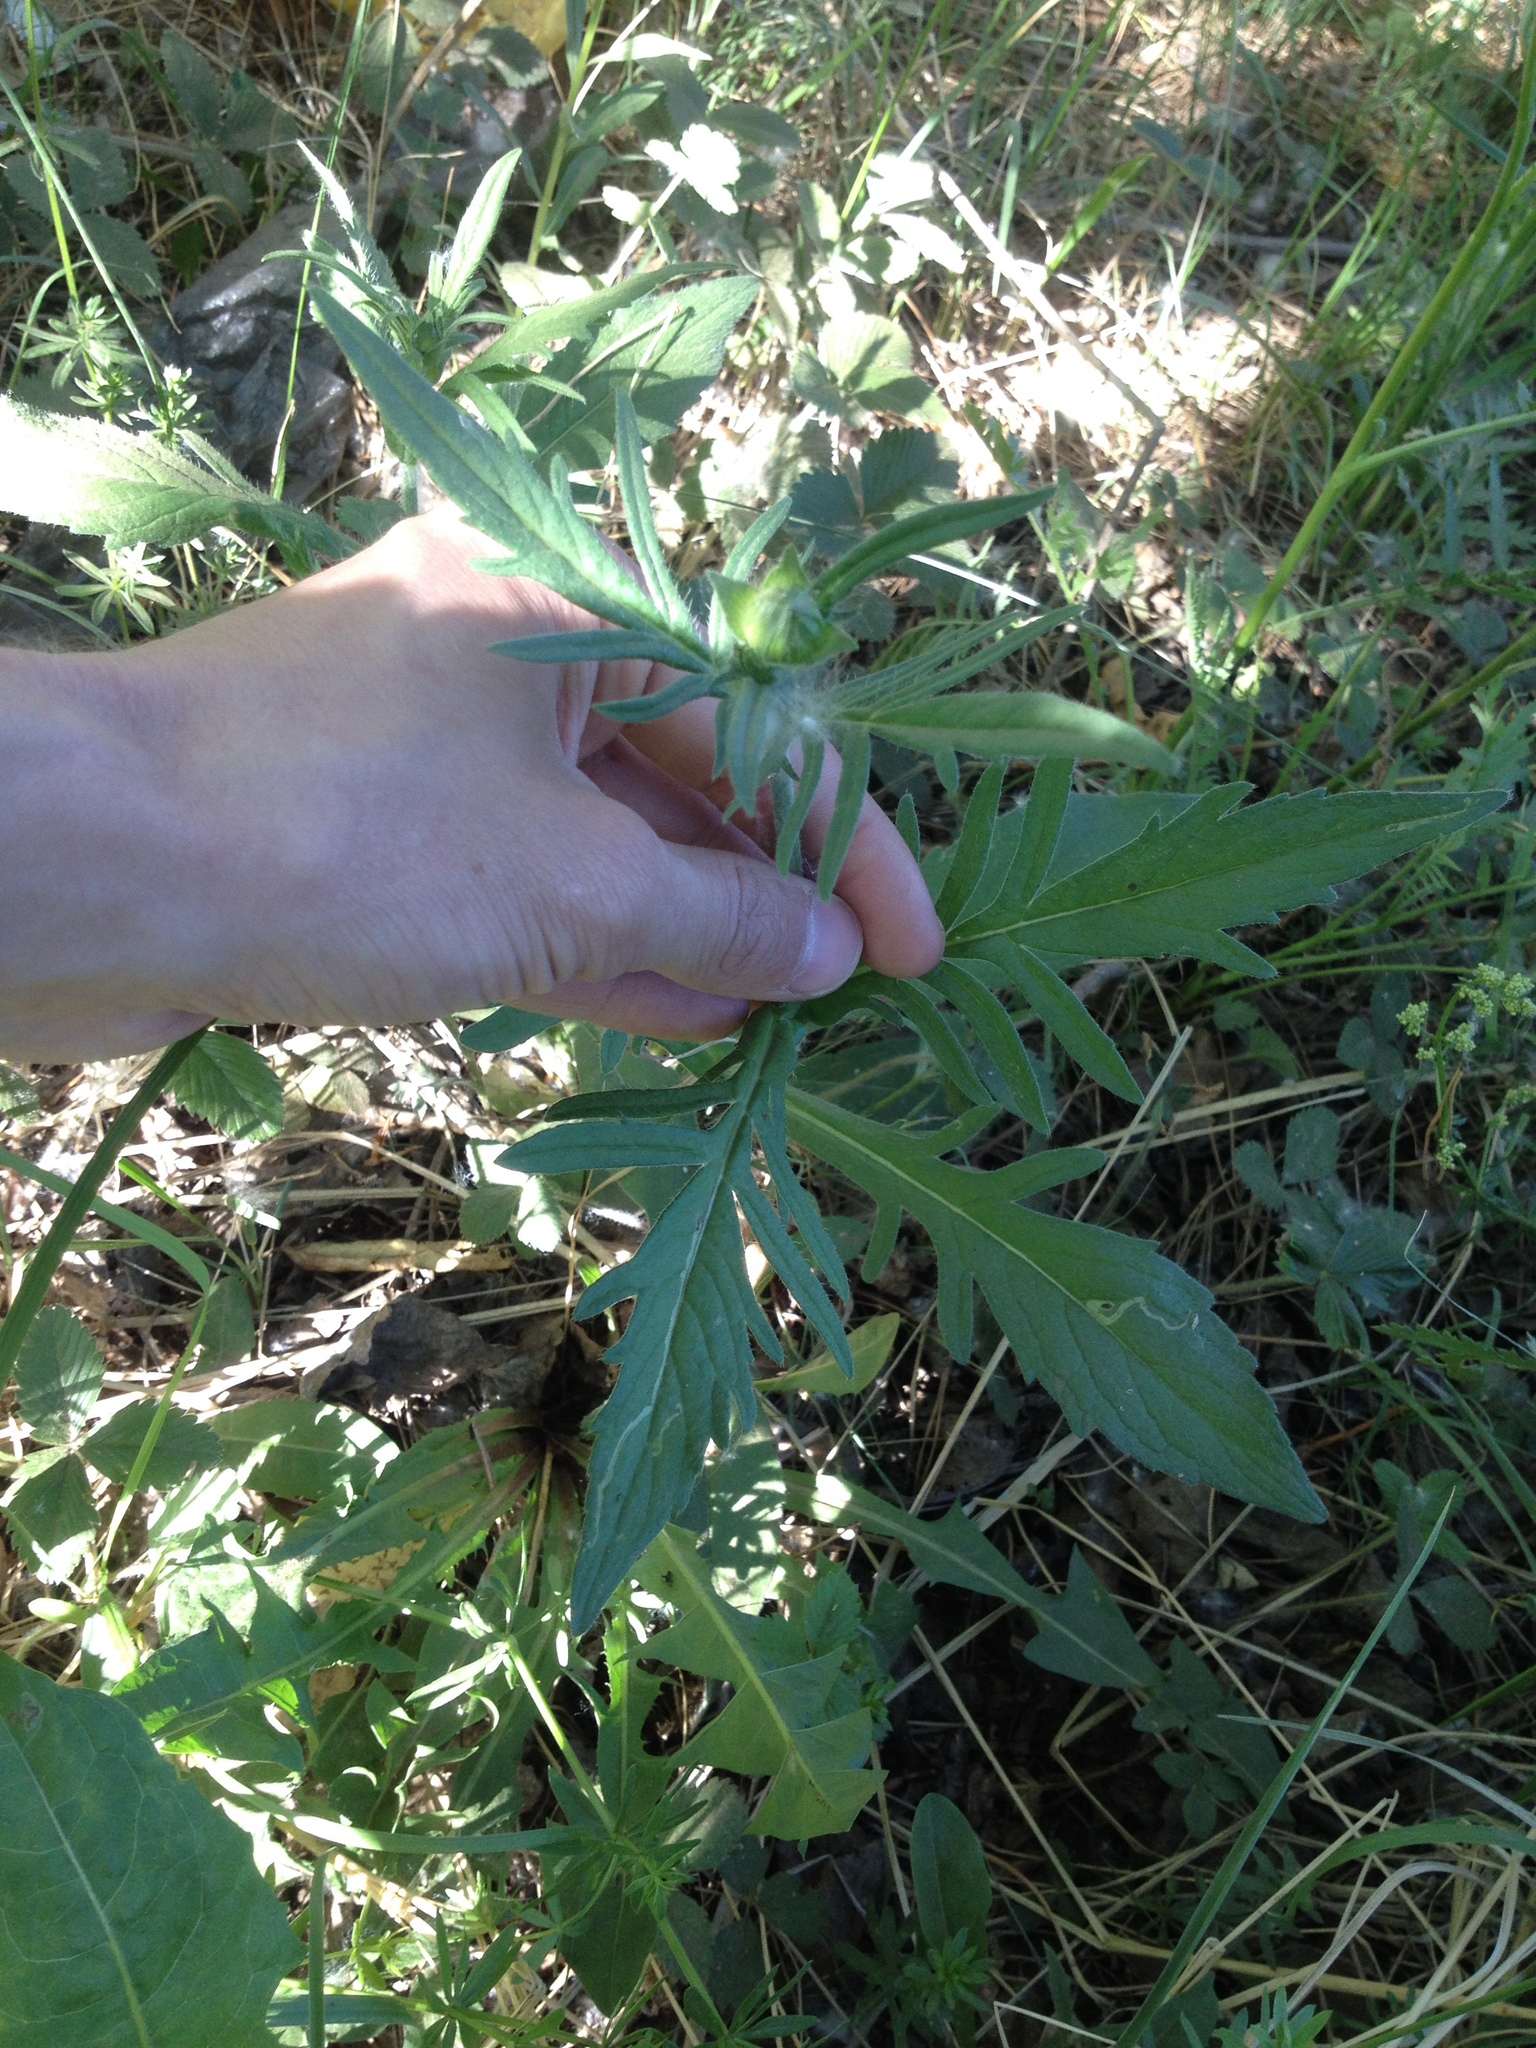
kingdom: Plantae
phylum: Tracheophyta
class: Magnoliopsida
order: Dipsacales
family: Caprifoliaceae
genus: Knautia
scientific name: Knautia arvensis
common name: Field scabiosa
